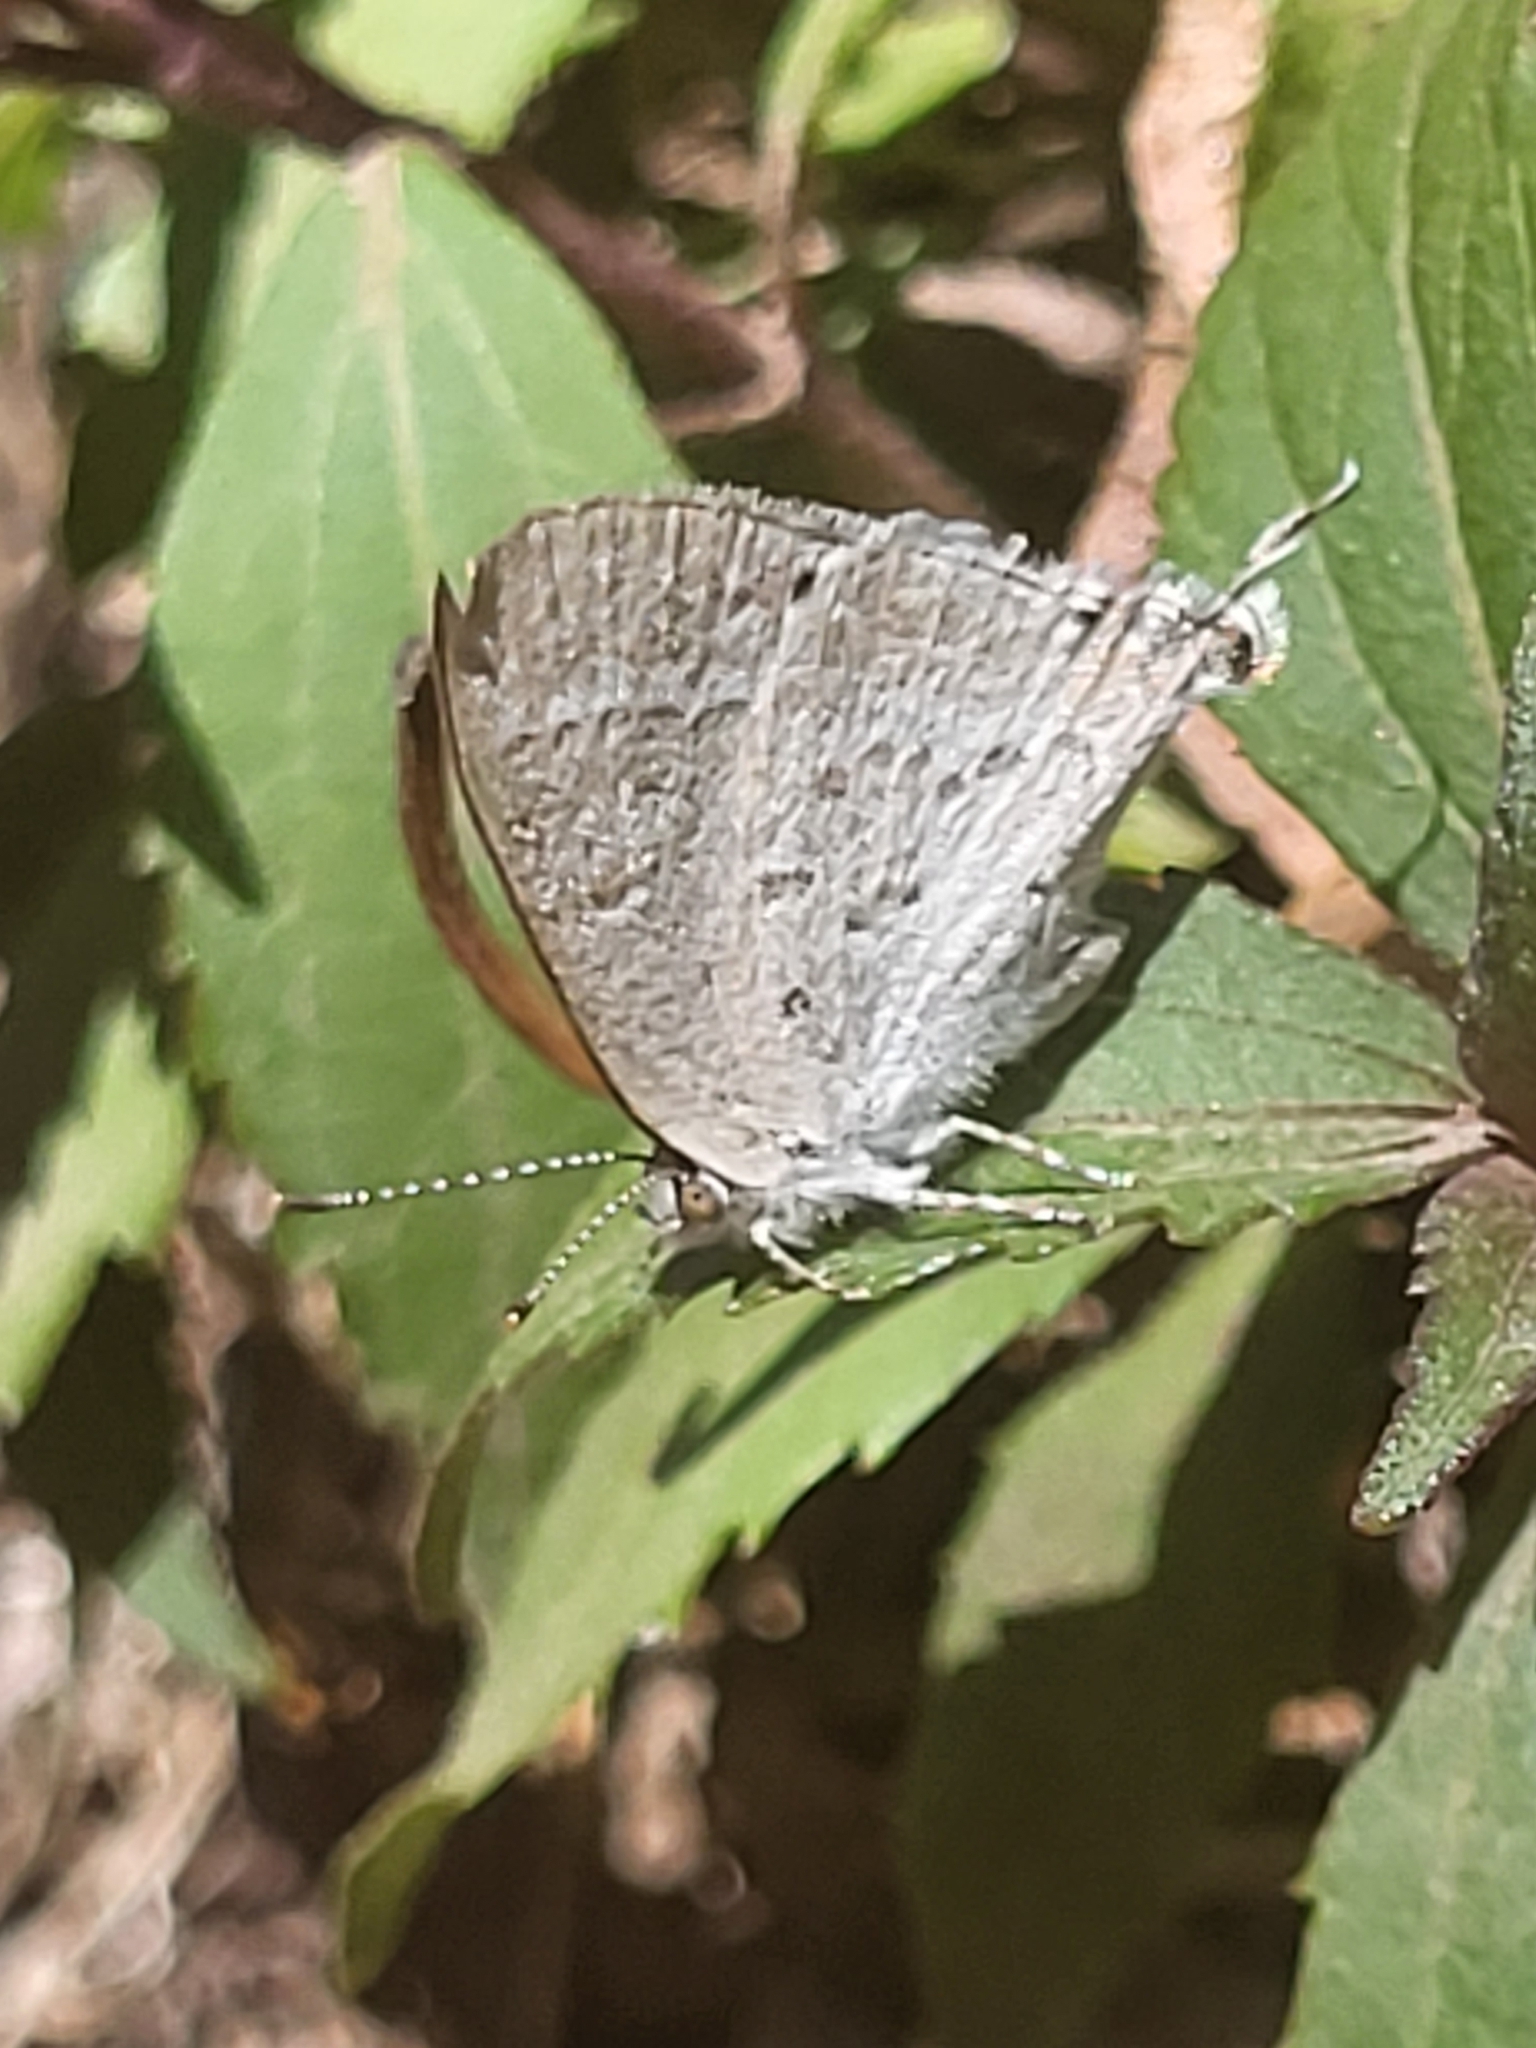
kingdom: Animalia
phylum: Arthropoda
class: Insecta
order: Lepidoptera
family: Lycaenidae
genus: Leptomyrina
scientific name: Leptomyrina phidias
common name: Madagascar black-eye
